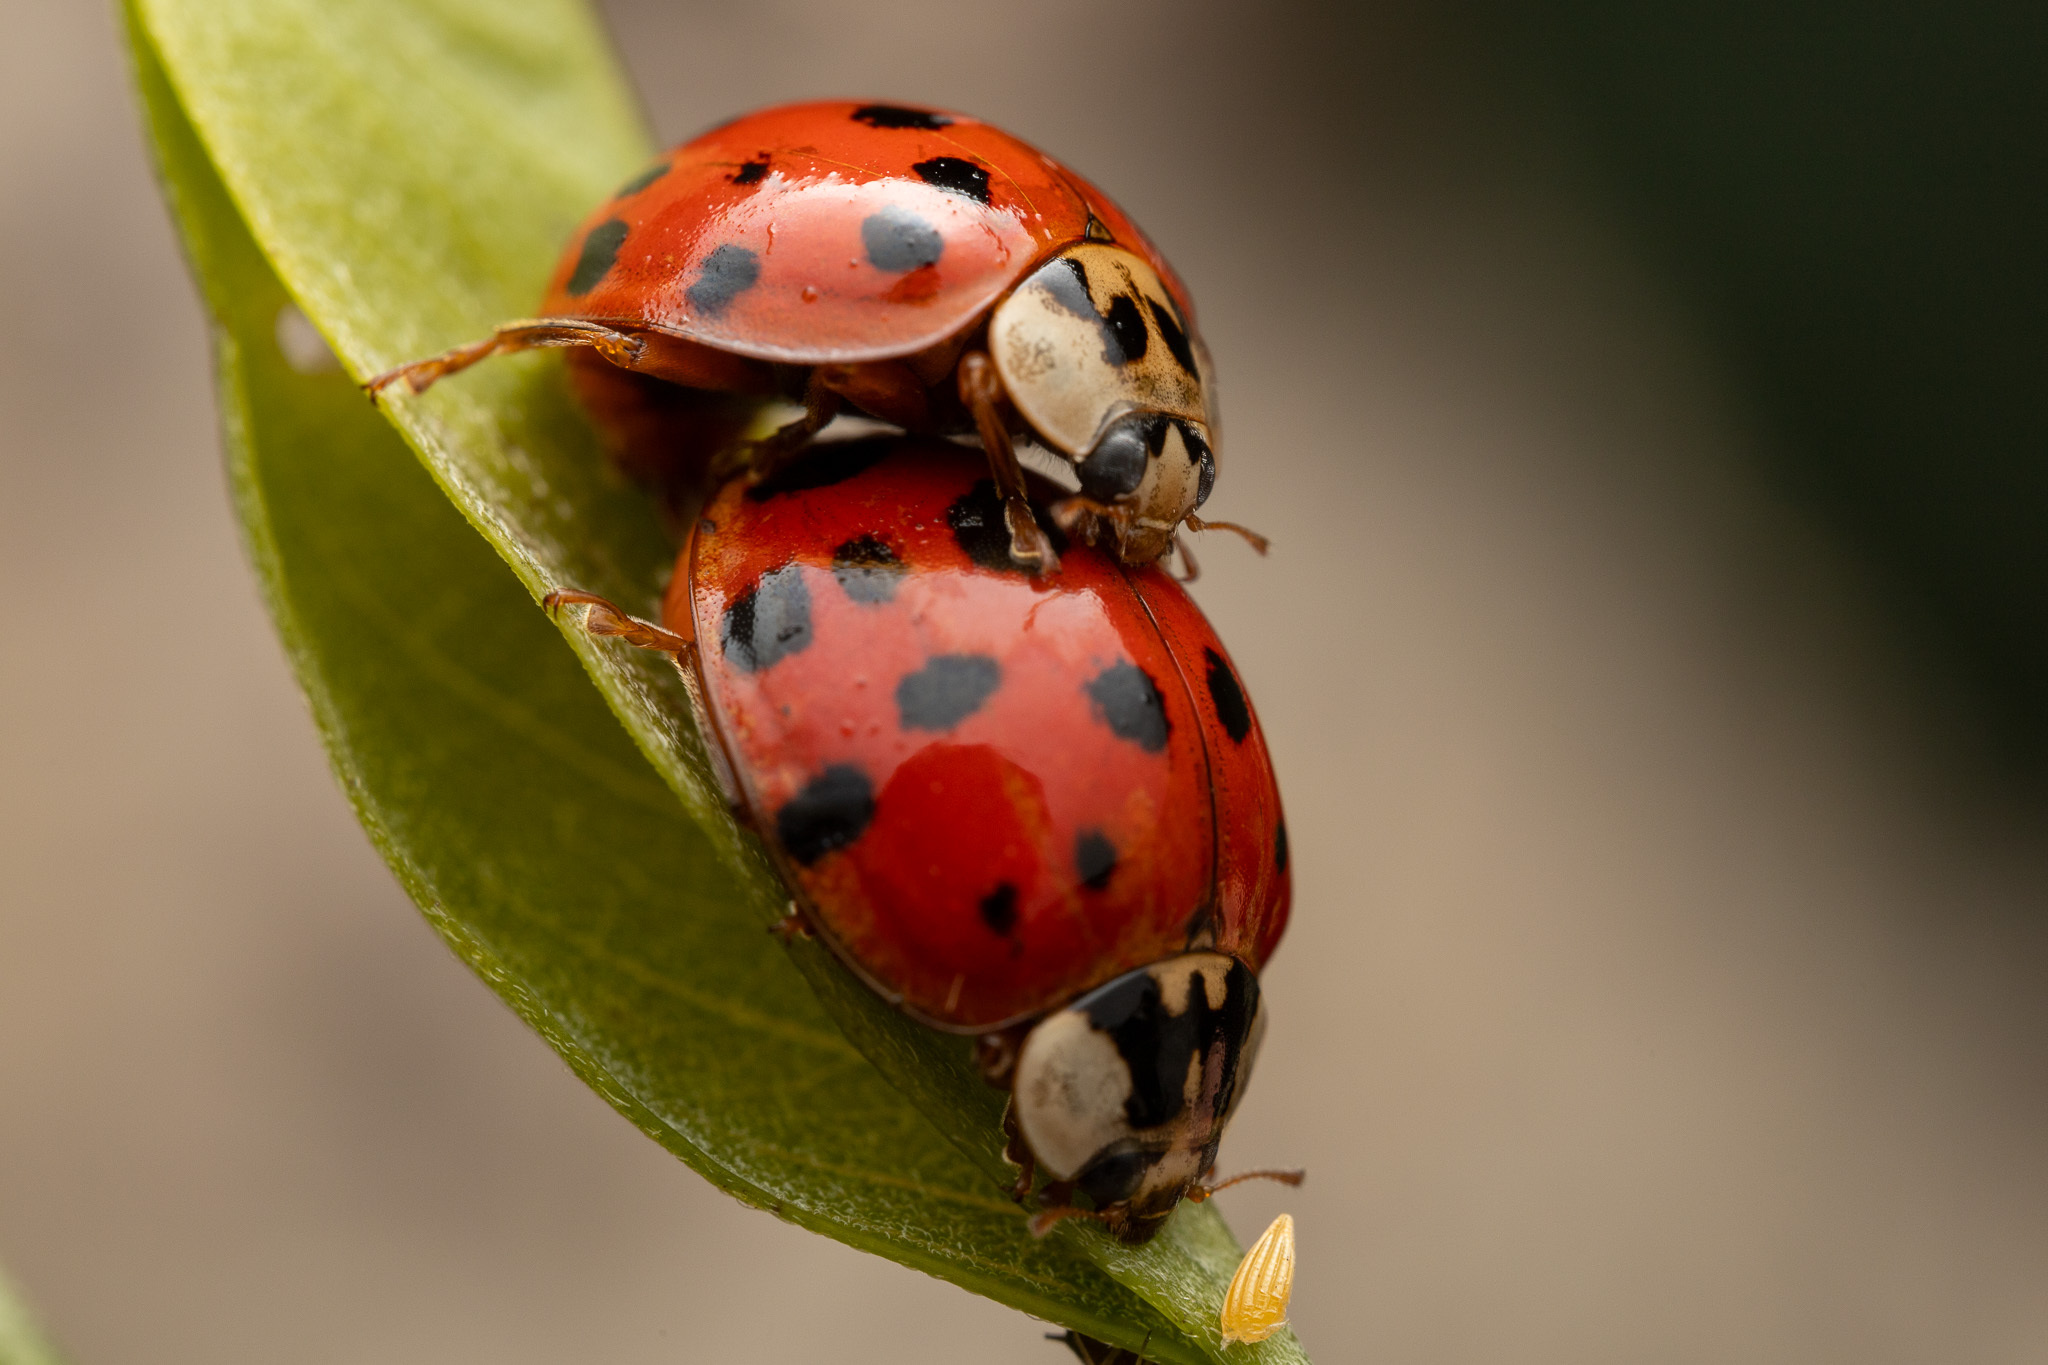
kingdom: Animalia
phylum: Arthropoda
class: Insecta
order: Coleoptera
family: Coccinellidae
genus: Harmonia
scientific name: Harmonia axyridis
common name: Harlequin ladybird
